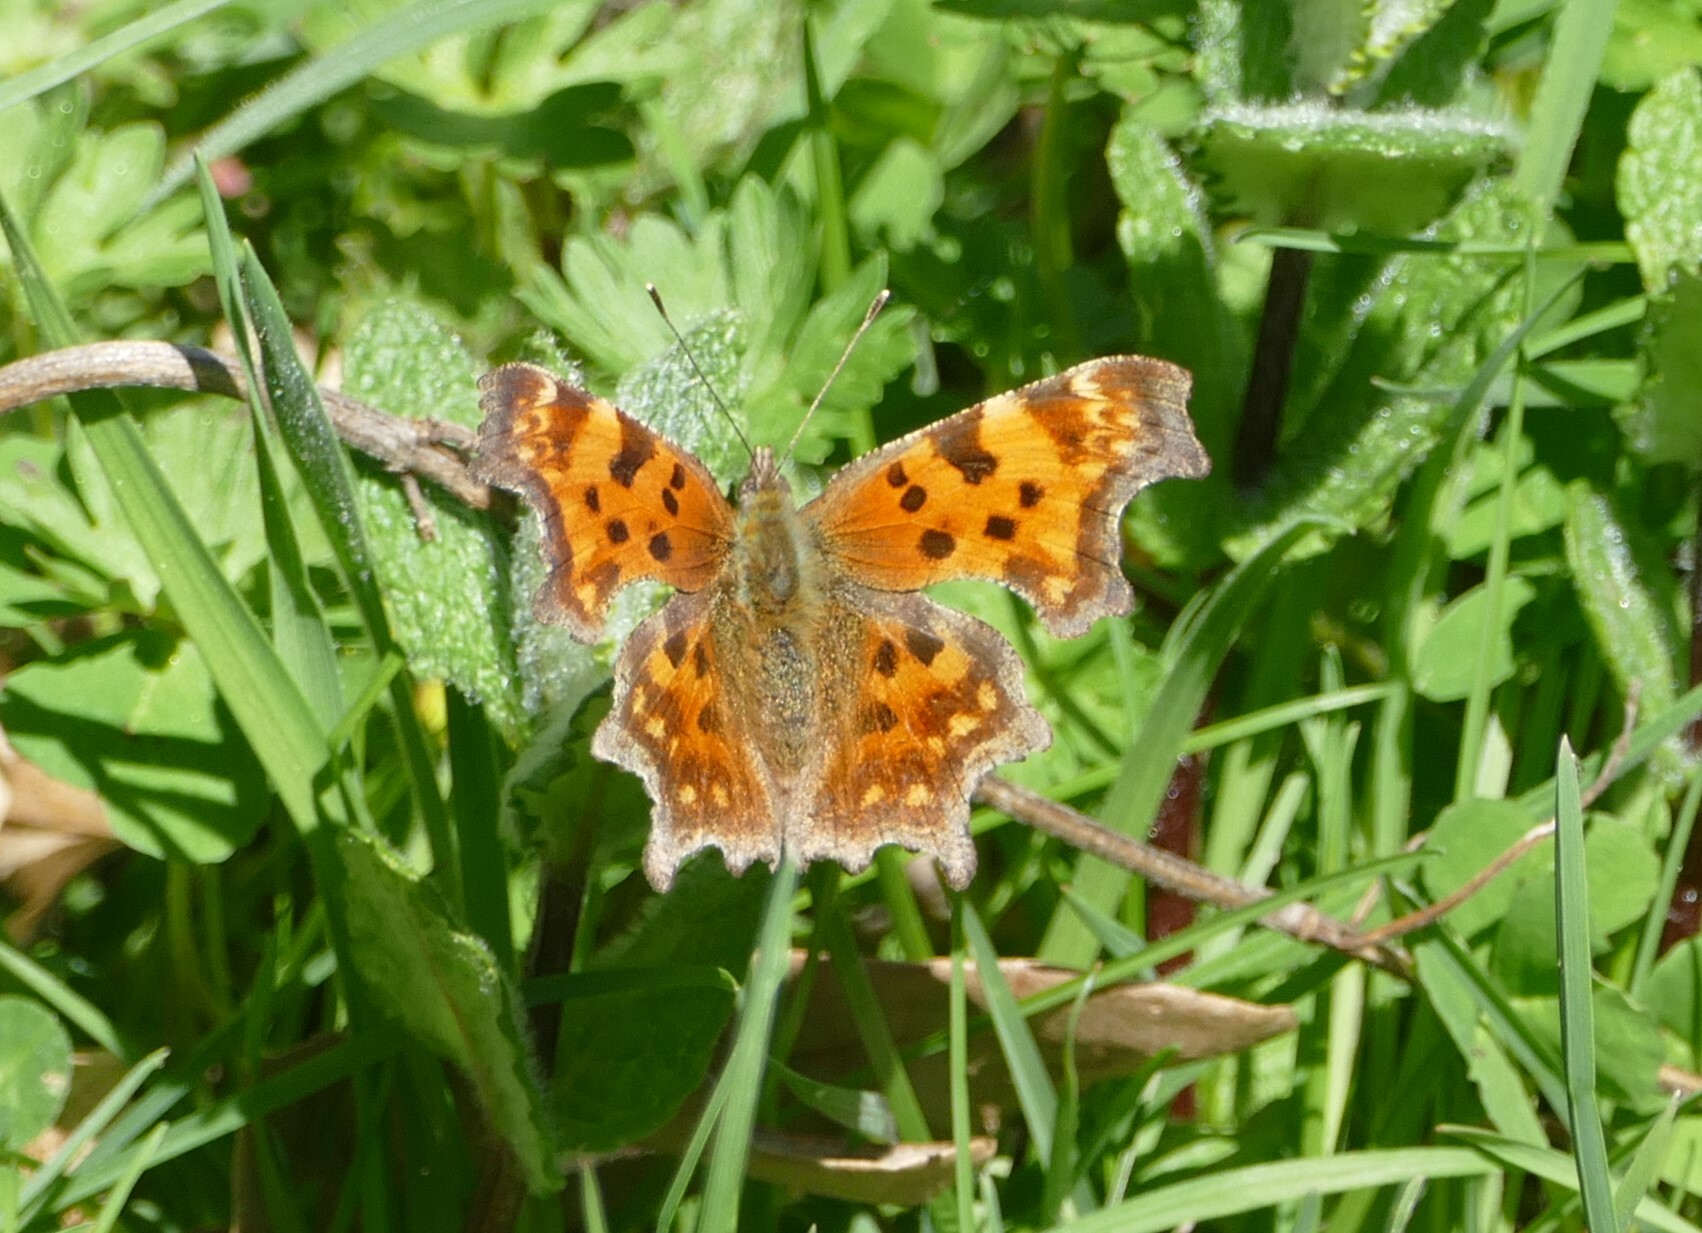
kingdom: Animalia
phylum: Arthropoda
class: Insecta
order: Lepidoptera
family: Nymphalidae
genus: Polygonia
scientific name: Polygonia c-album
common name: Comma
